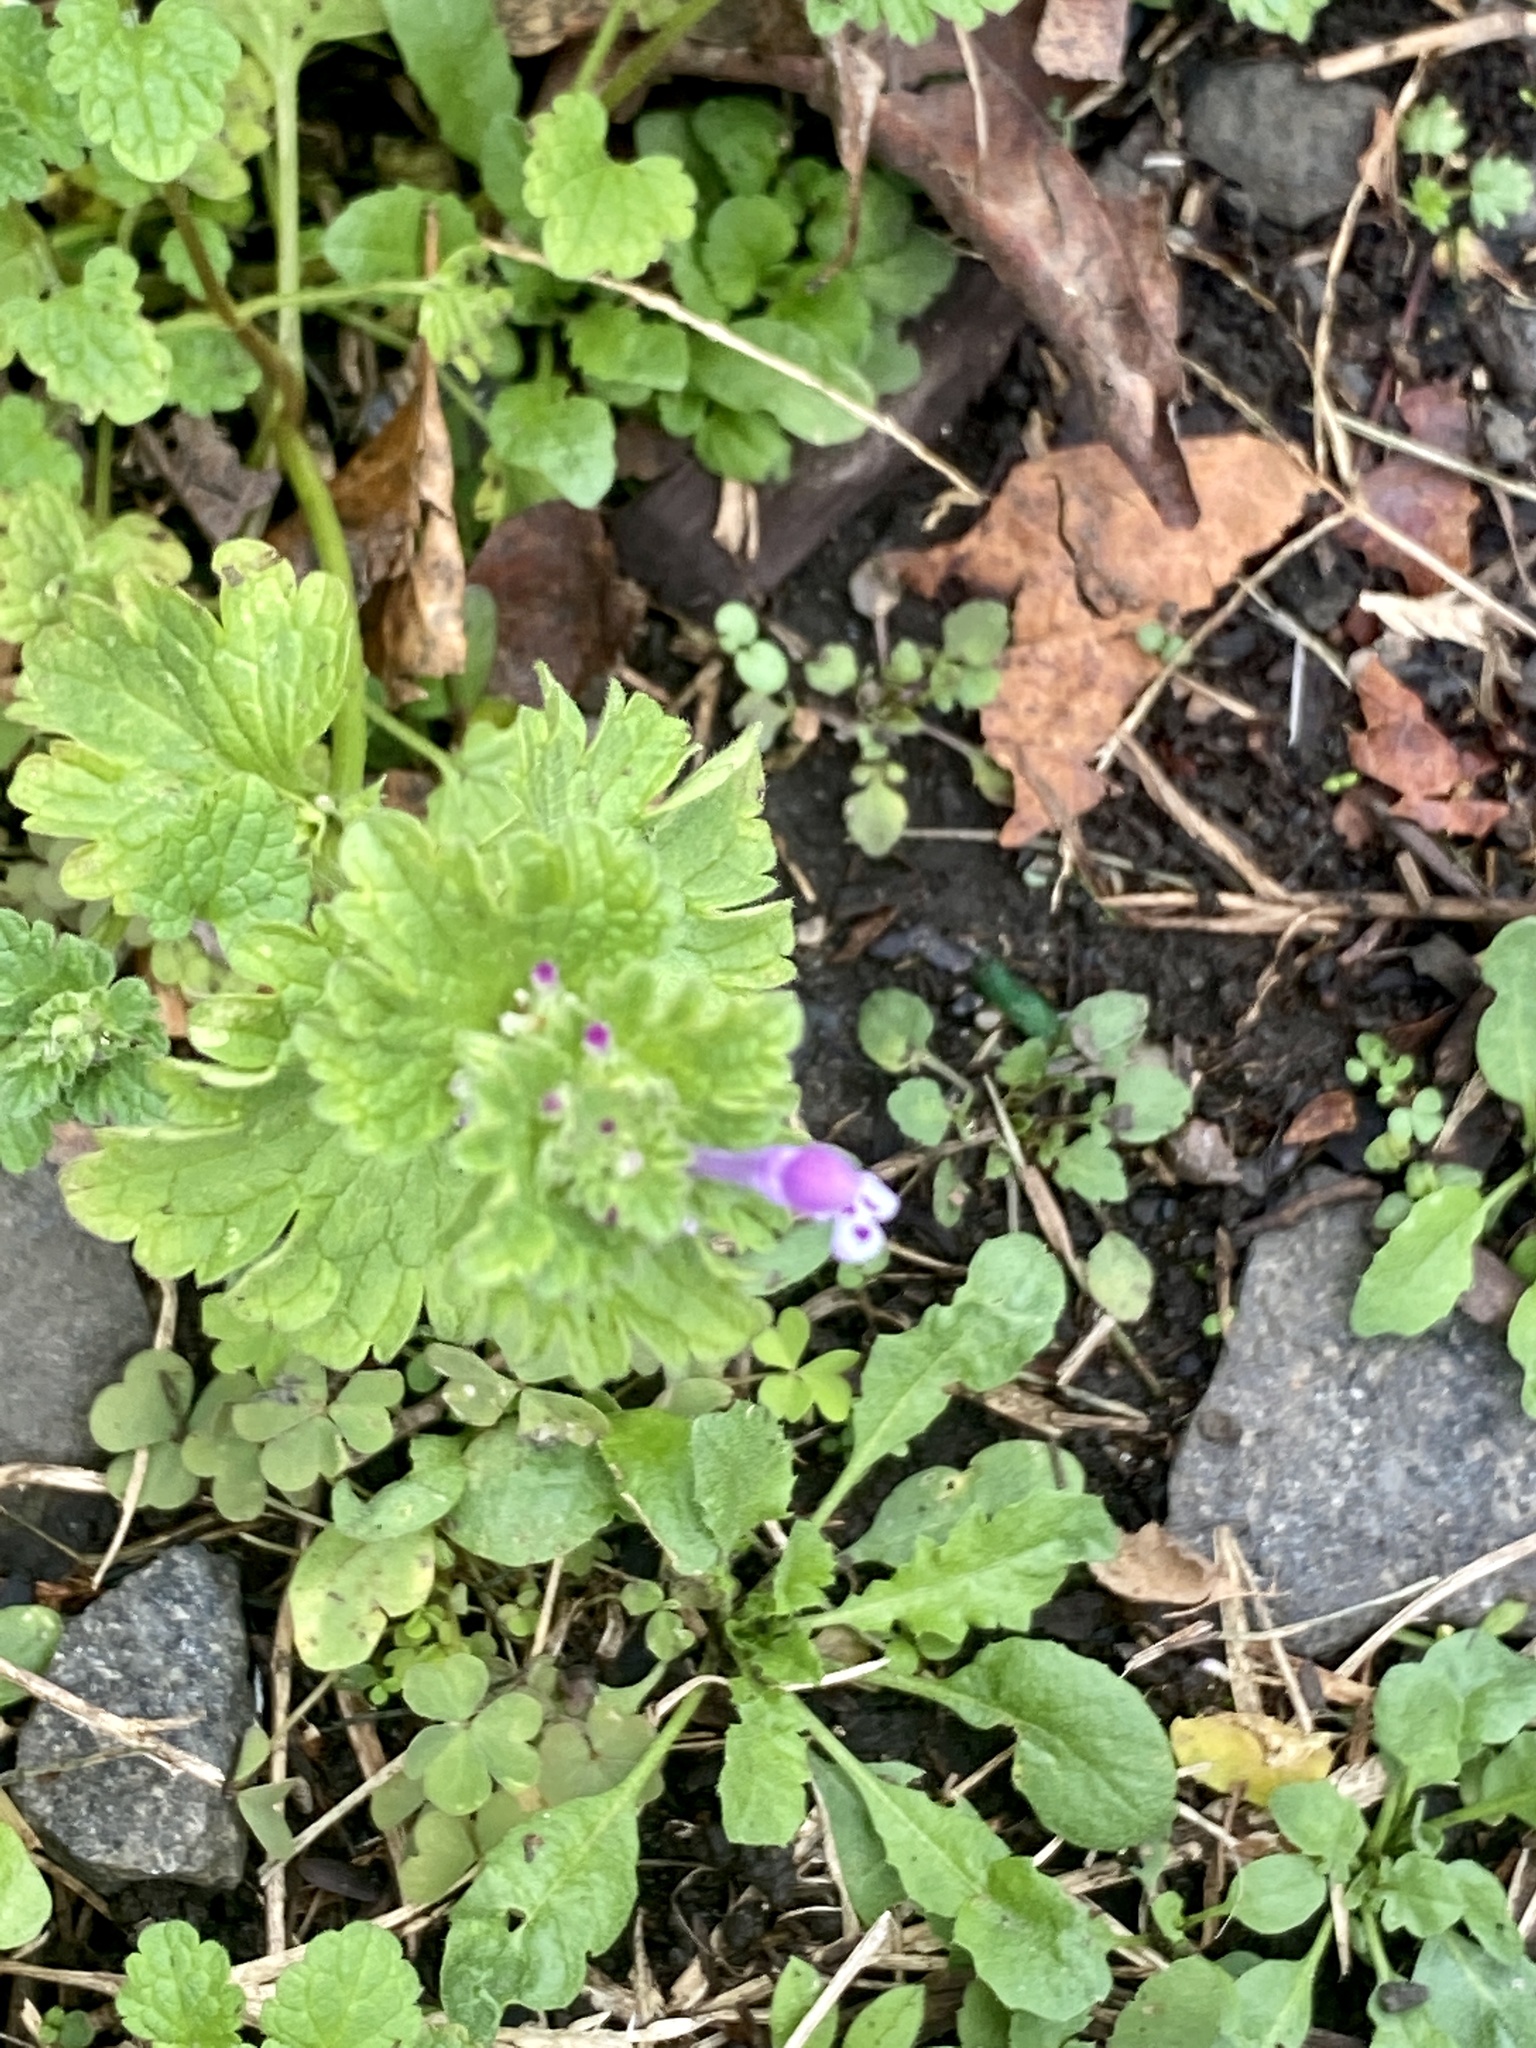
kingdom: Plantae
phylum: Tracheophyta
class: Magnoliopsida
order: Lamiales
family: Lamiaceae
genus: Lamium
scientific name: Lamium amplexicaule
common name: Henbit dead-nettle
